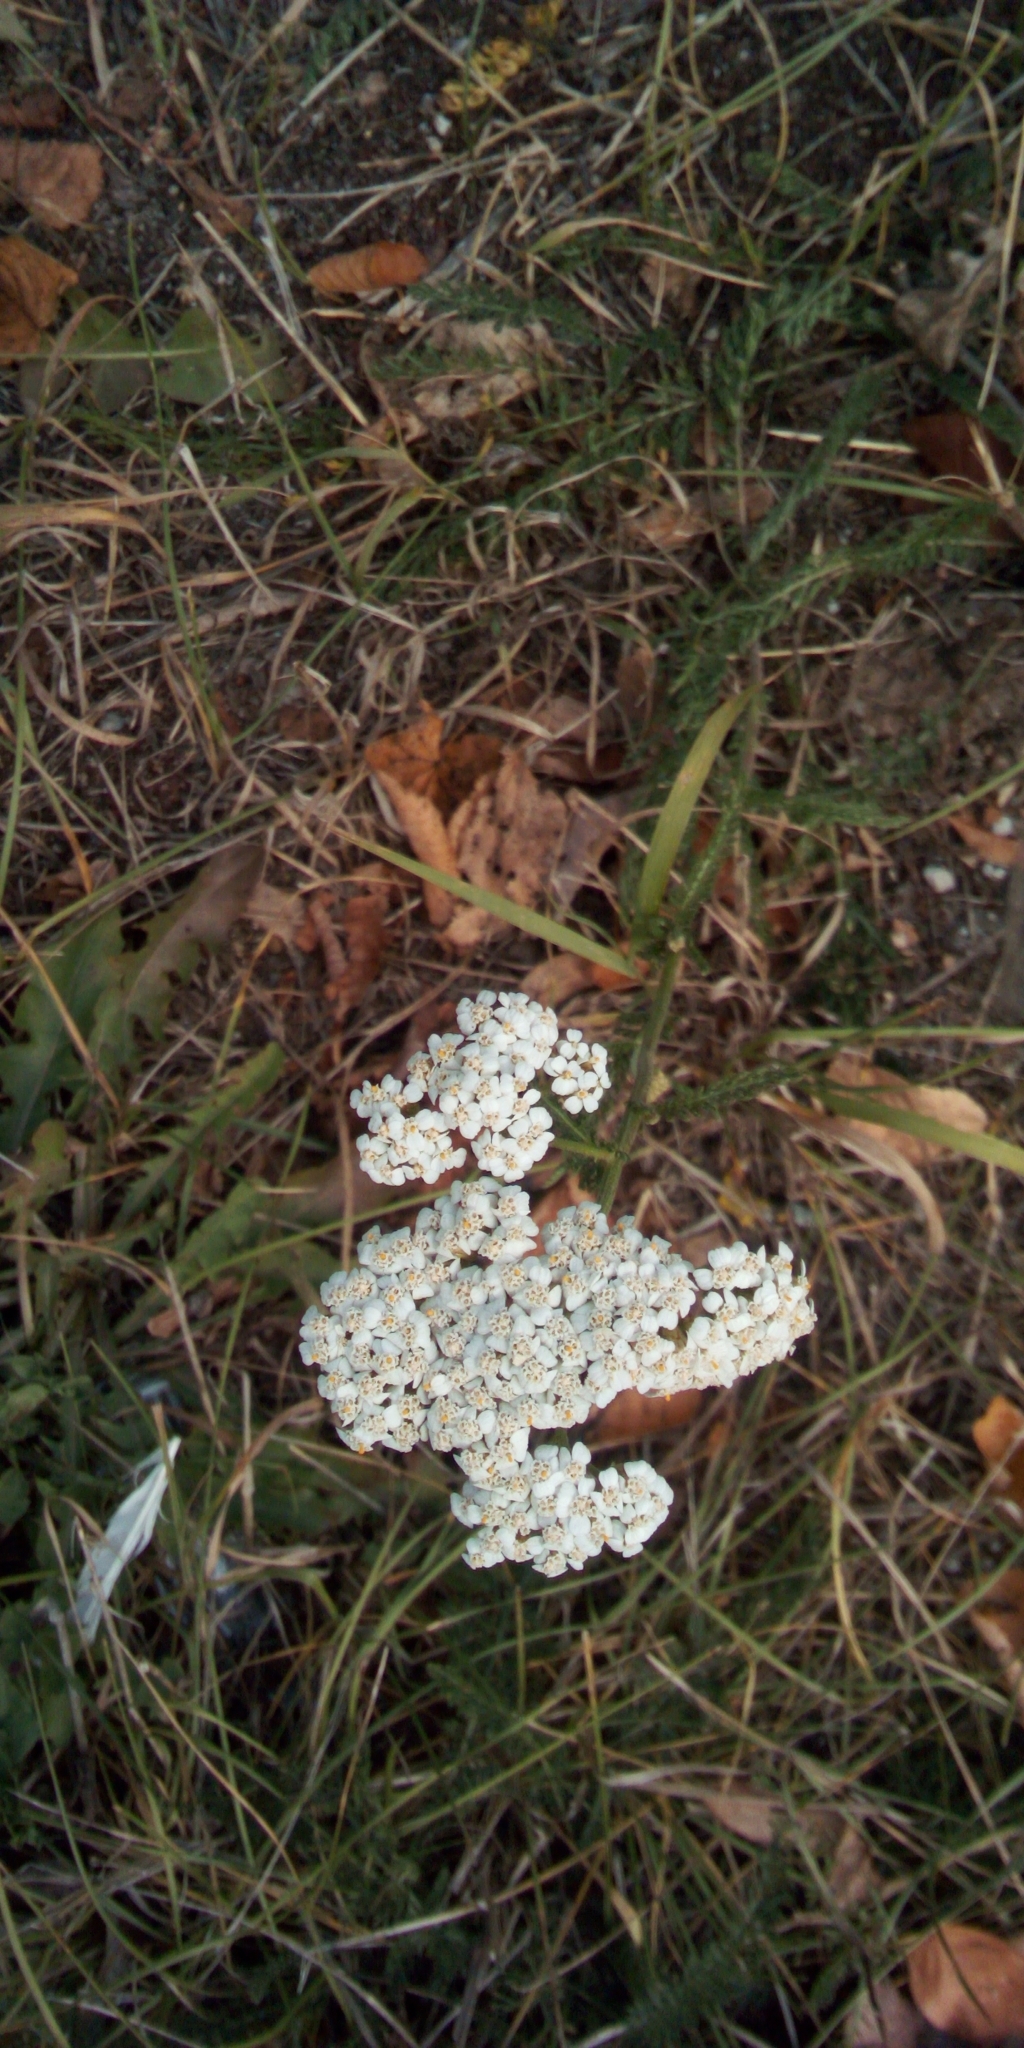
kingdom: Plantae
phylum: Tracheophyta
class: Magnoliopsida
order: Asterales
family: Asteraceae
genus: Achillea
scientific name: Achillea millefolium
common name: Yarrow
